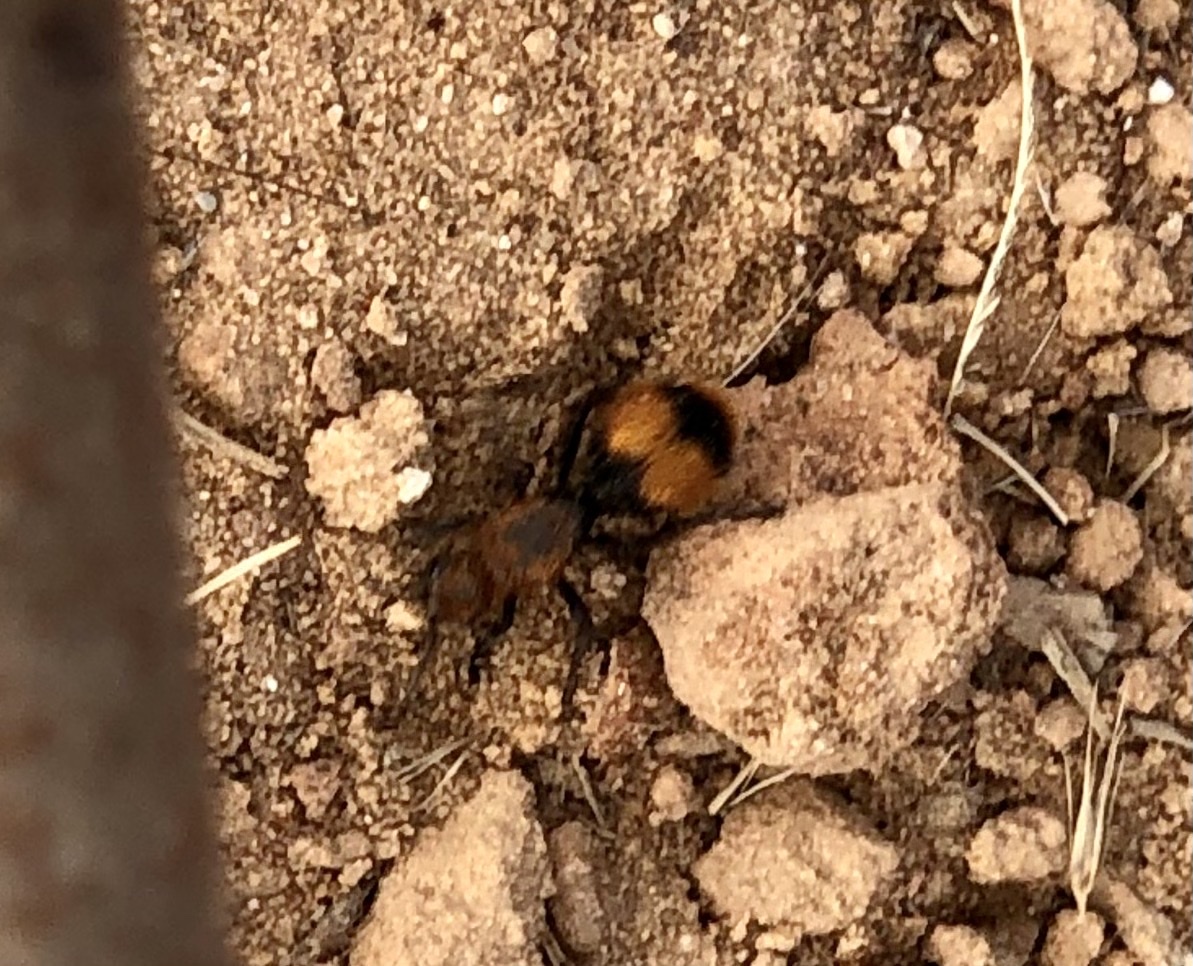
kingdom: Animalia
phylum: Arthropoda
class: Insecta
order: Hymenoptera
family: Mutillidae
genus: Dasymutilla
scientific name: Dasymutilla occidentalis
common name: Common eastern velvet ant
